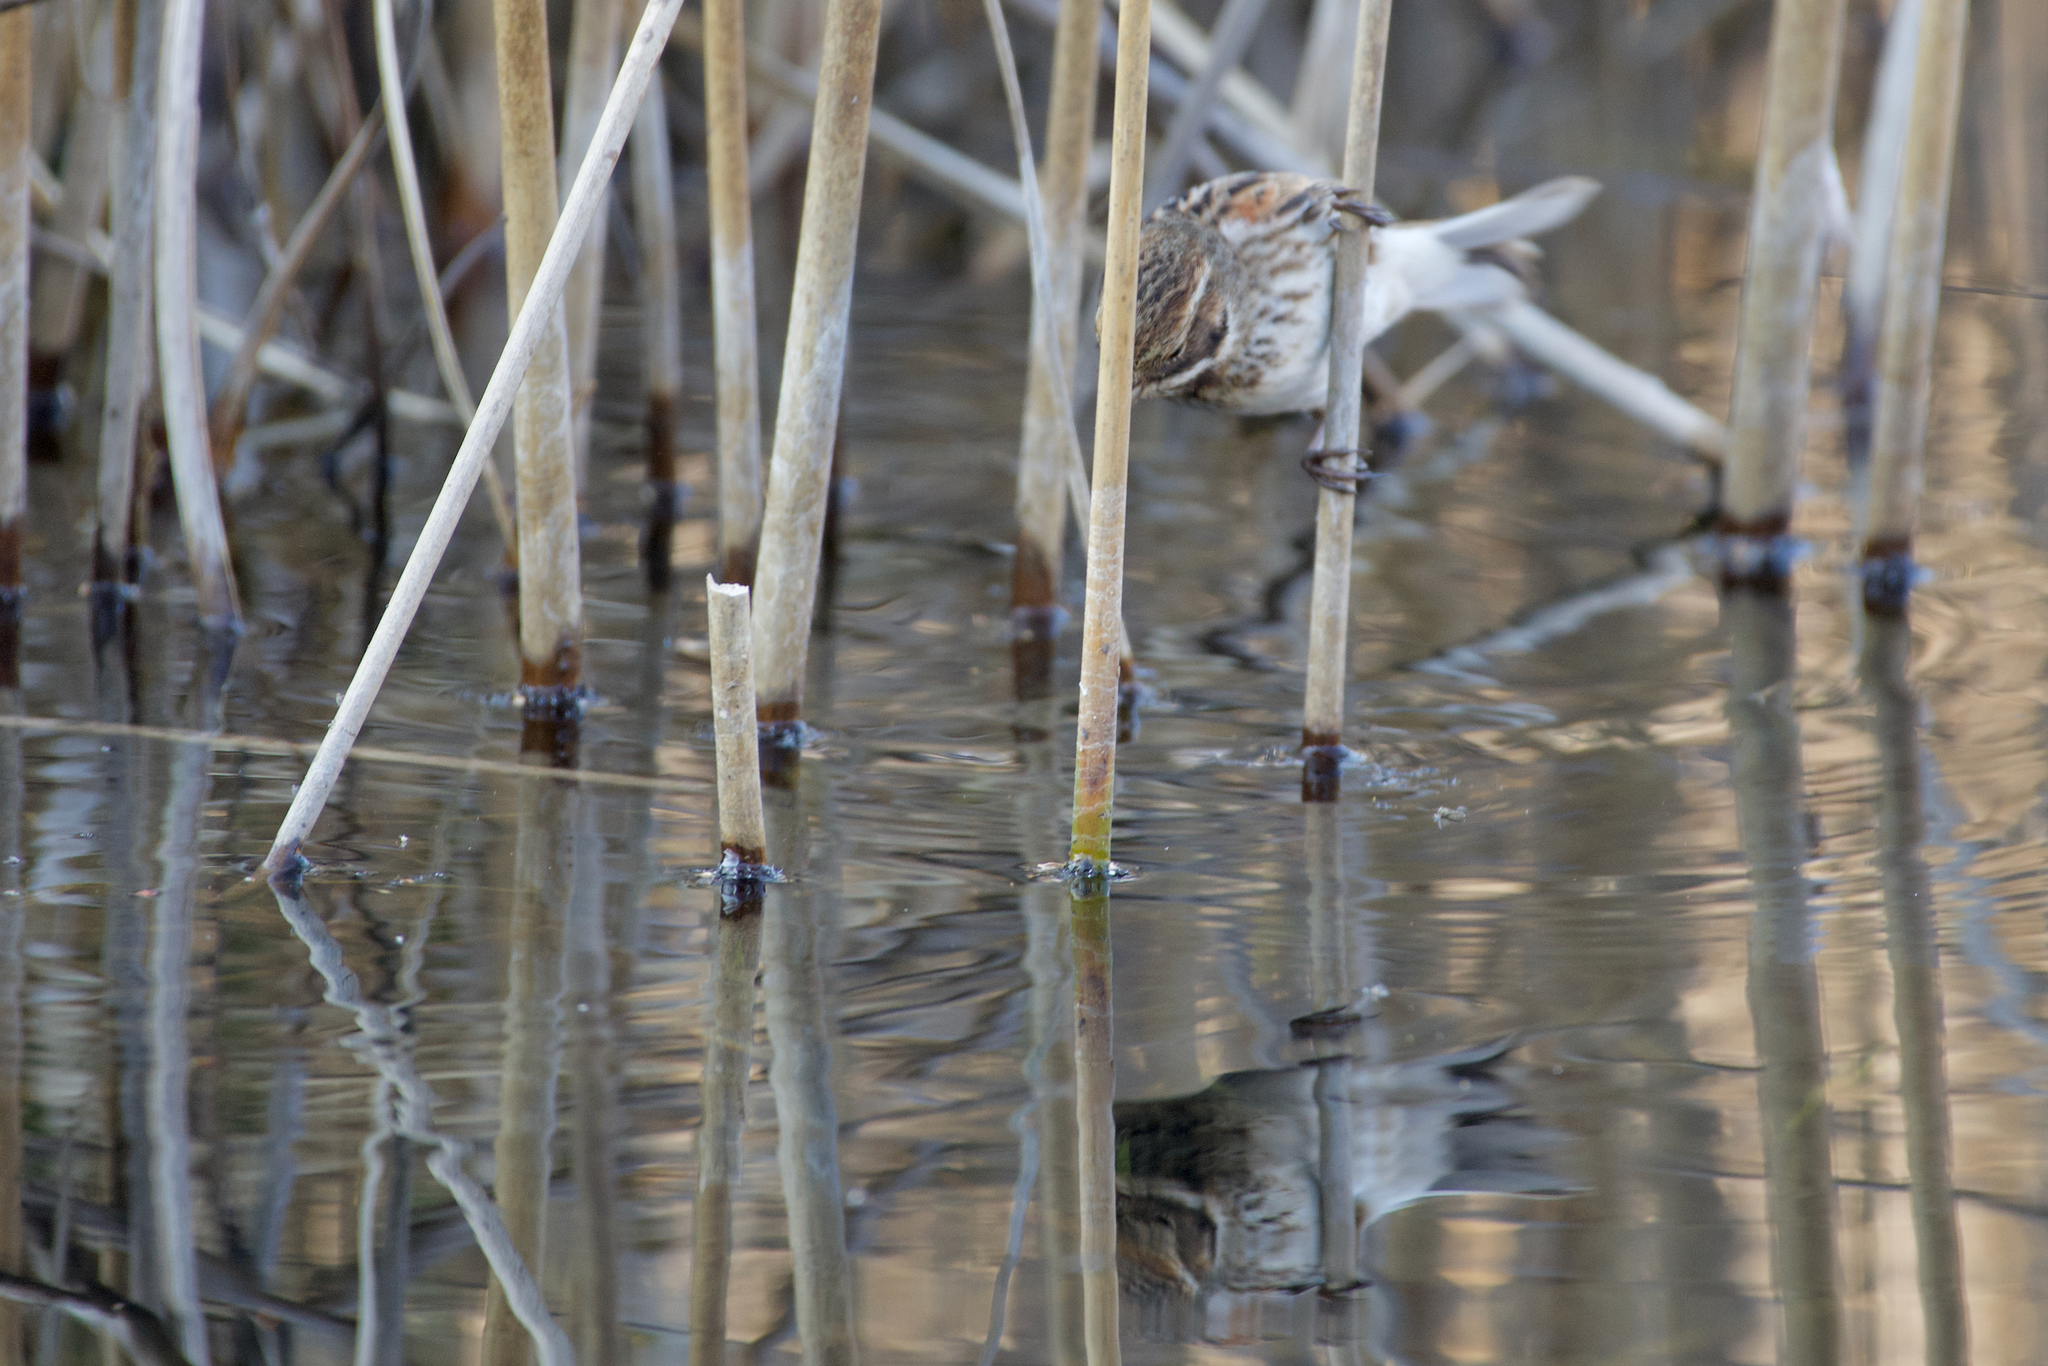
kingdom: Animalia
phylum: Chordata
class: Aves
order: Passeriformes
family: Emberizidae
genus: Emberiza
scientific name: Emberiza schoeniclus
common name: Reed bunting
